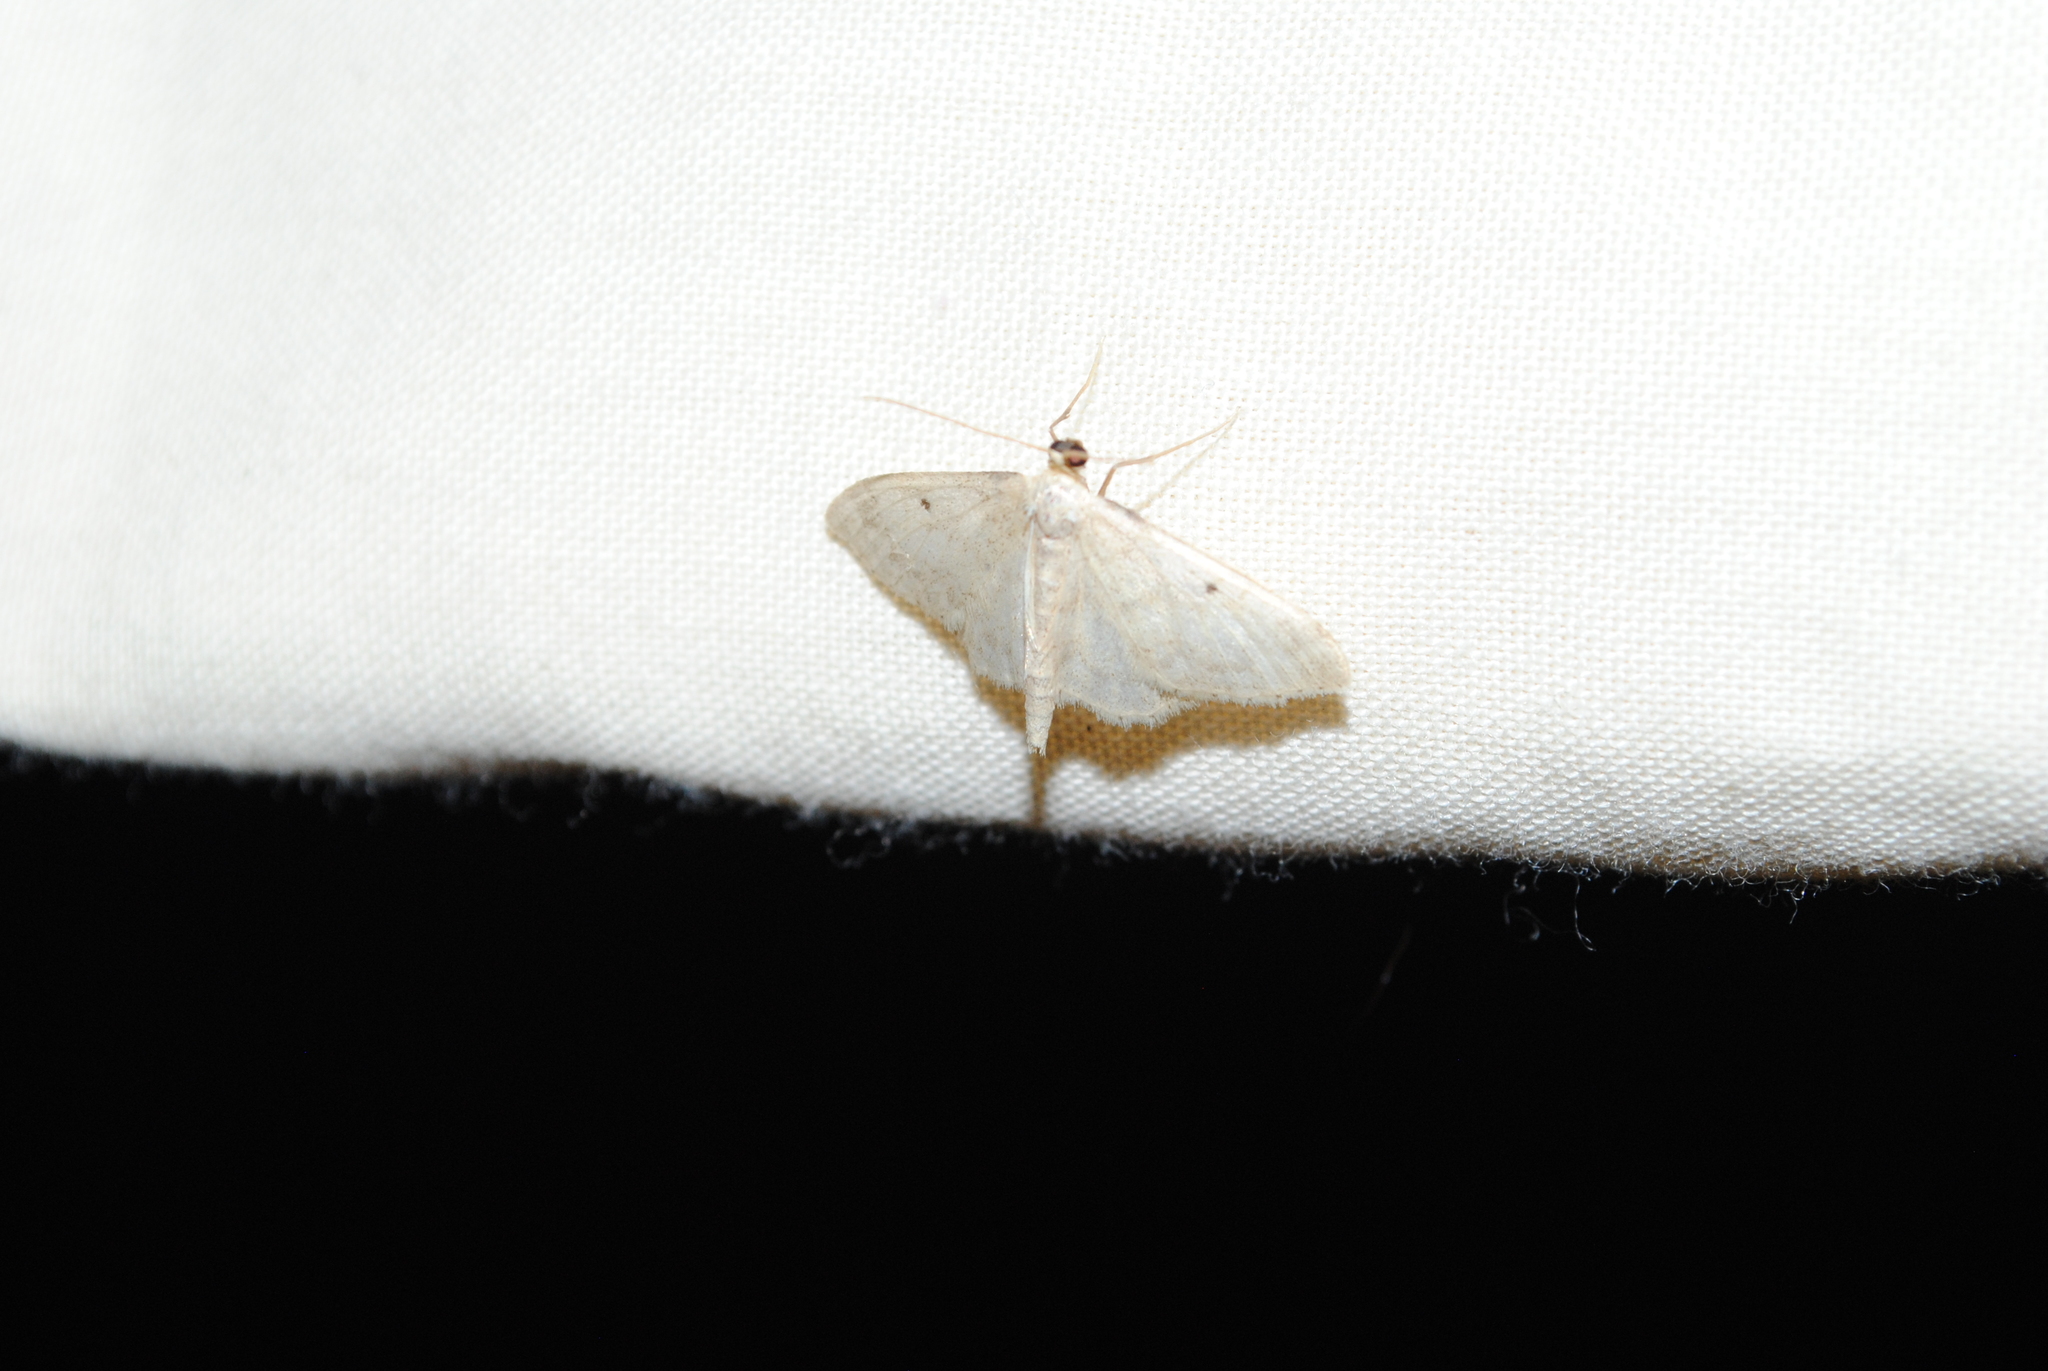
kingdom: Animalia
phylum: Arthropoda
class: Insecta
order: Lepidoptera
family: Geometridae
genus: Idaea
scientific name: Idaea biselata
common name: Small fan-footed wave
